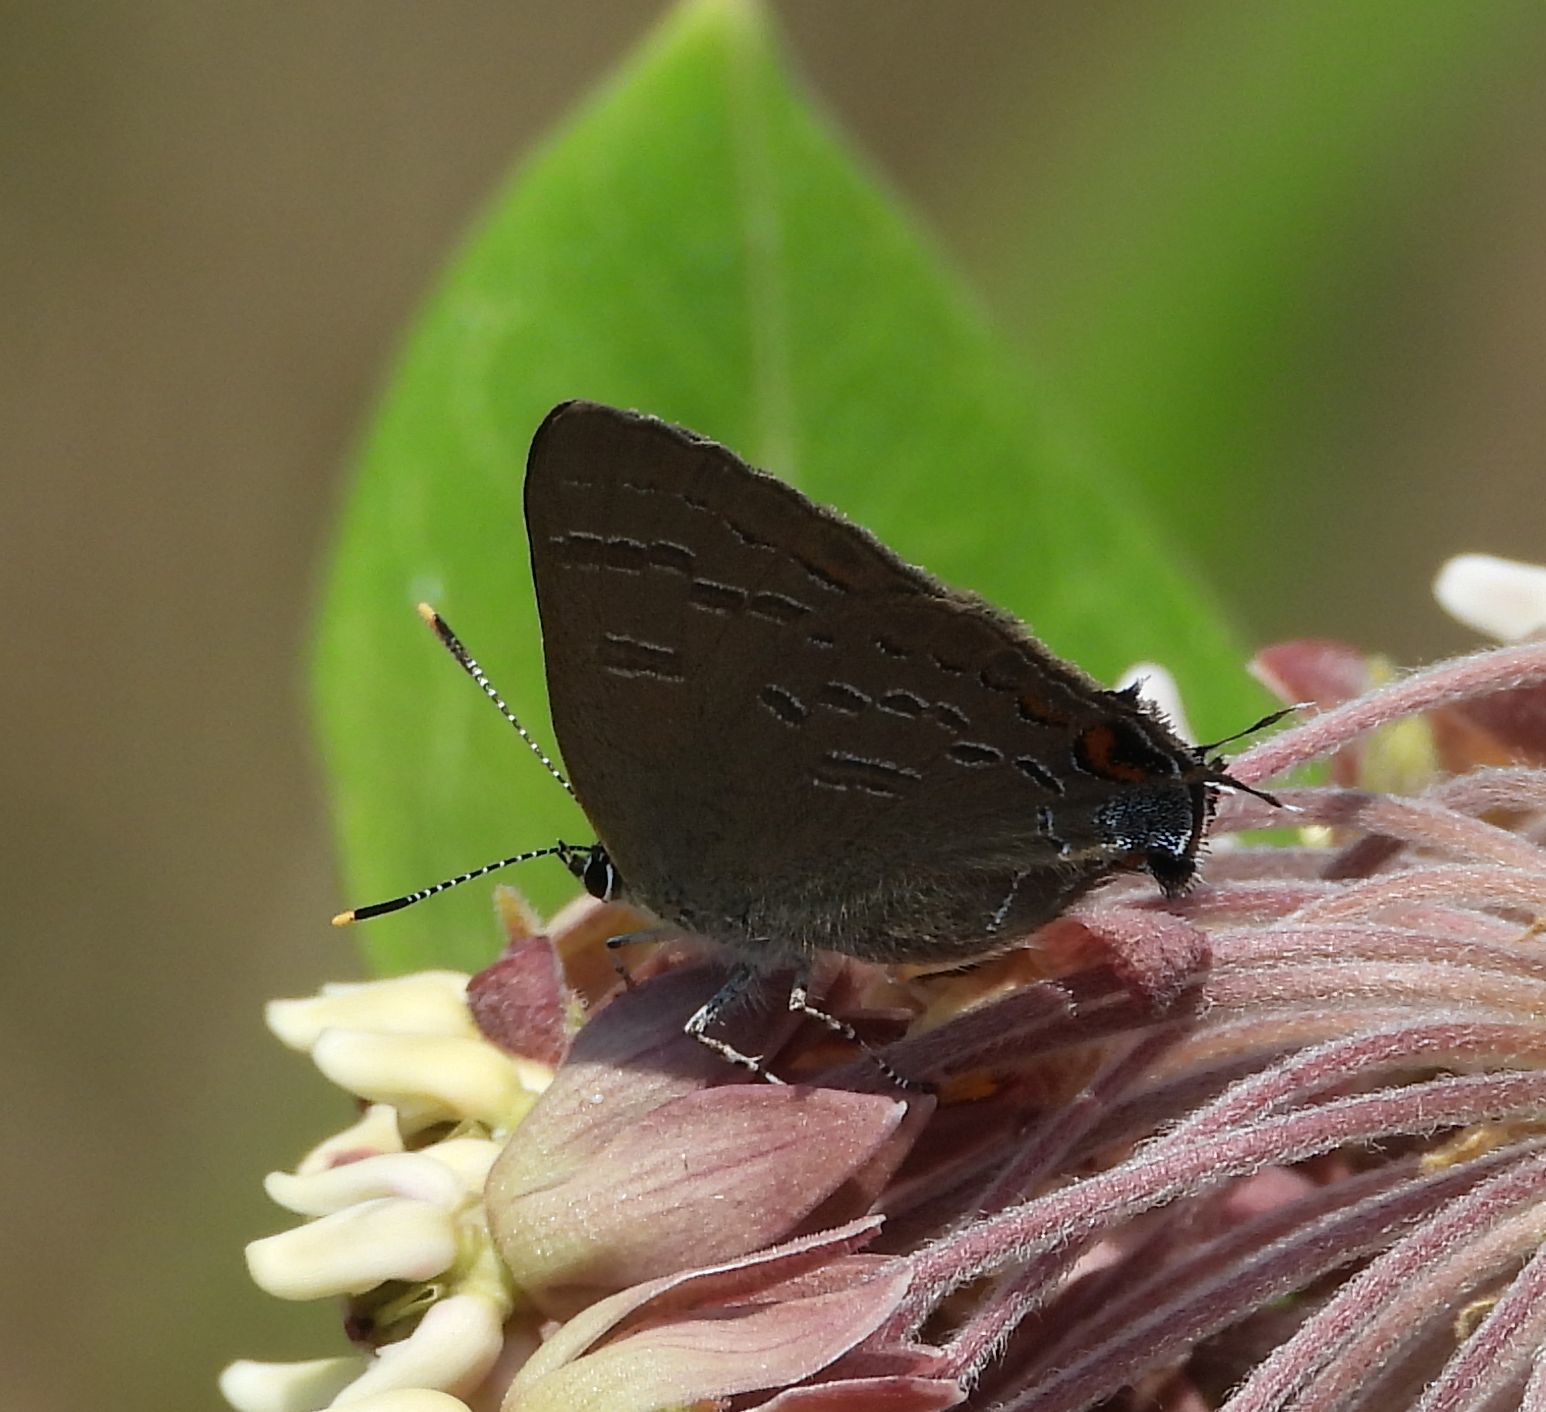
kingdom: Animalia
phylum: Arthropoda
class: Insecta
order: Lepidoptera
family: Lycaenidae
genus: Satyrium
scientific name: Satyrium calanus
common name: Banded hairstreak
